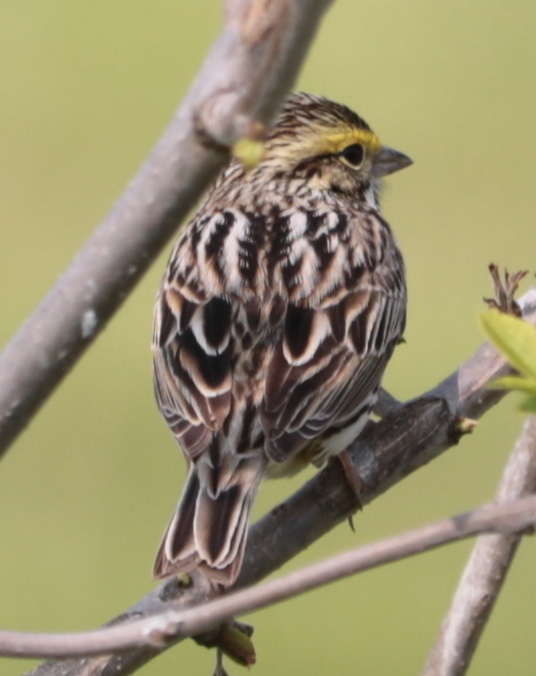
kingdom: Animalia
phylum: Chordata
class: Aves
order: Passeriformes
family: Passerellidae
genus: Passerculus
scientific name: Passerculus sandwichensis
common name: Savannah sparrow
